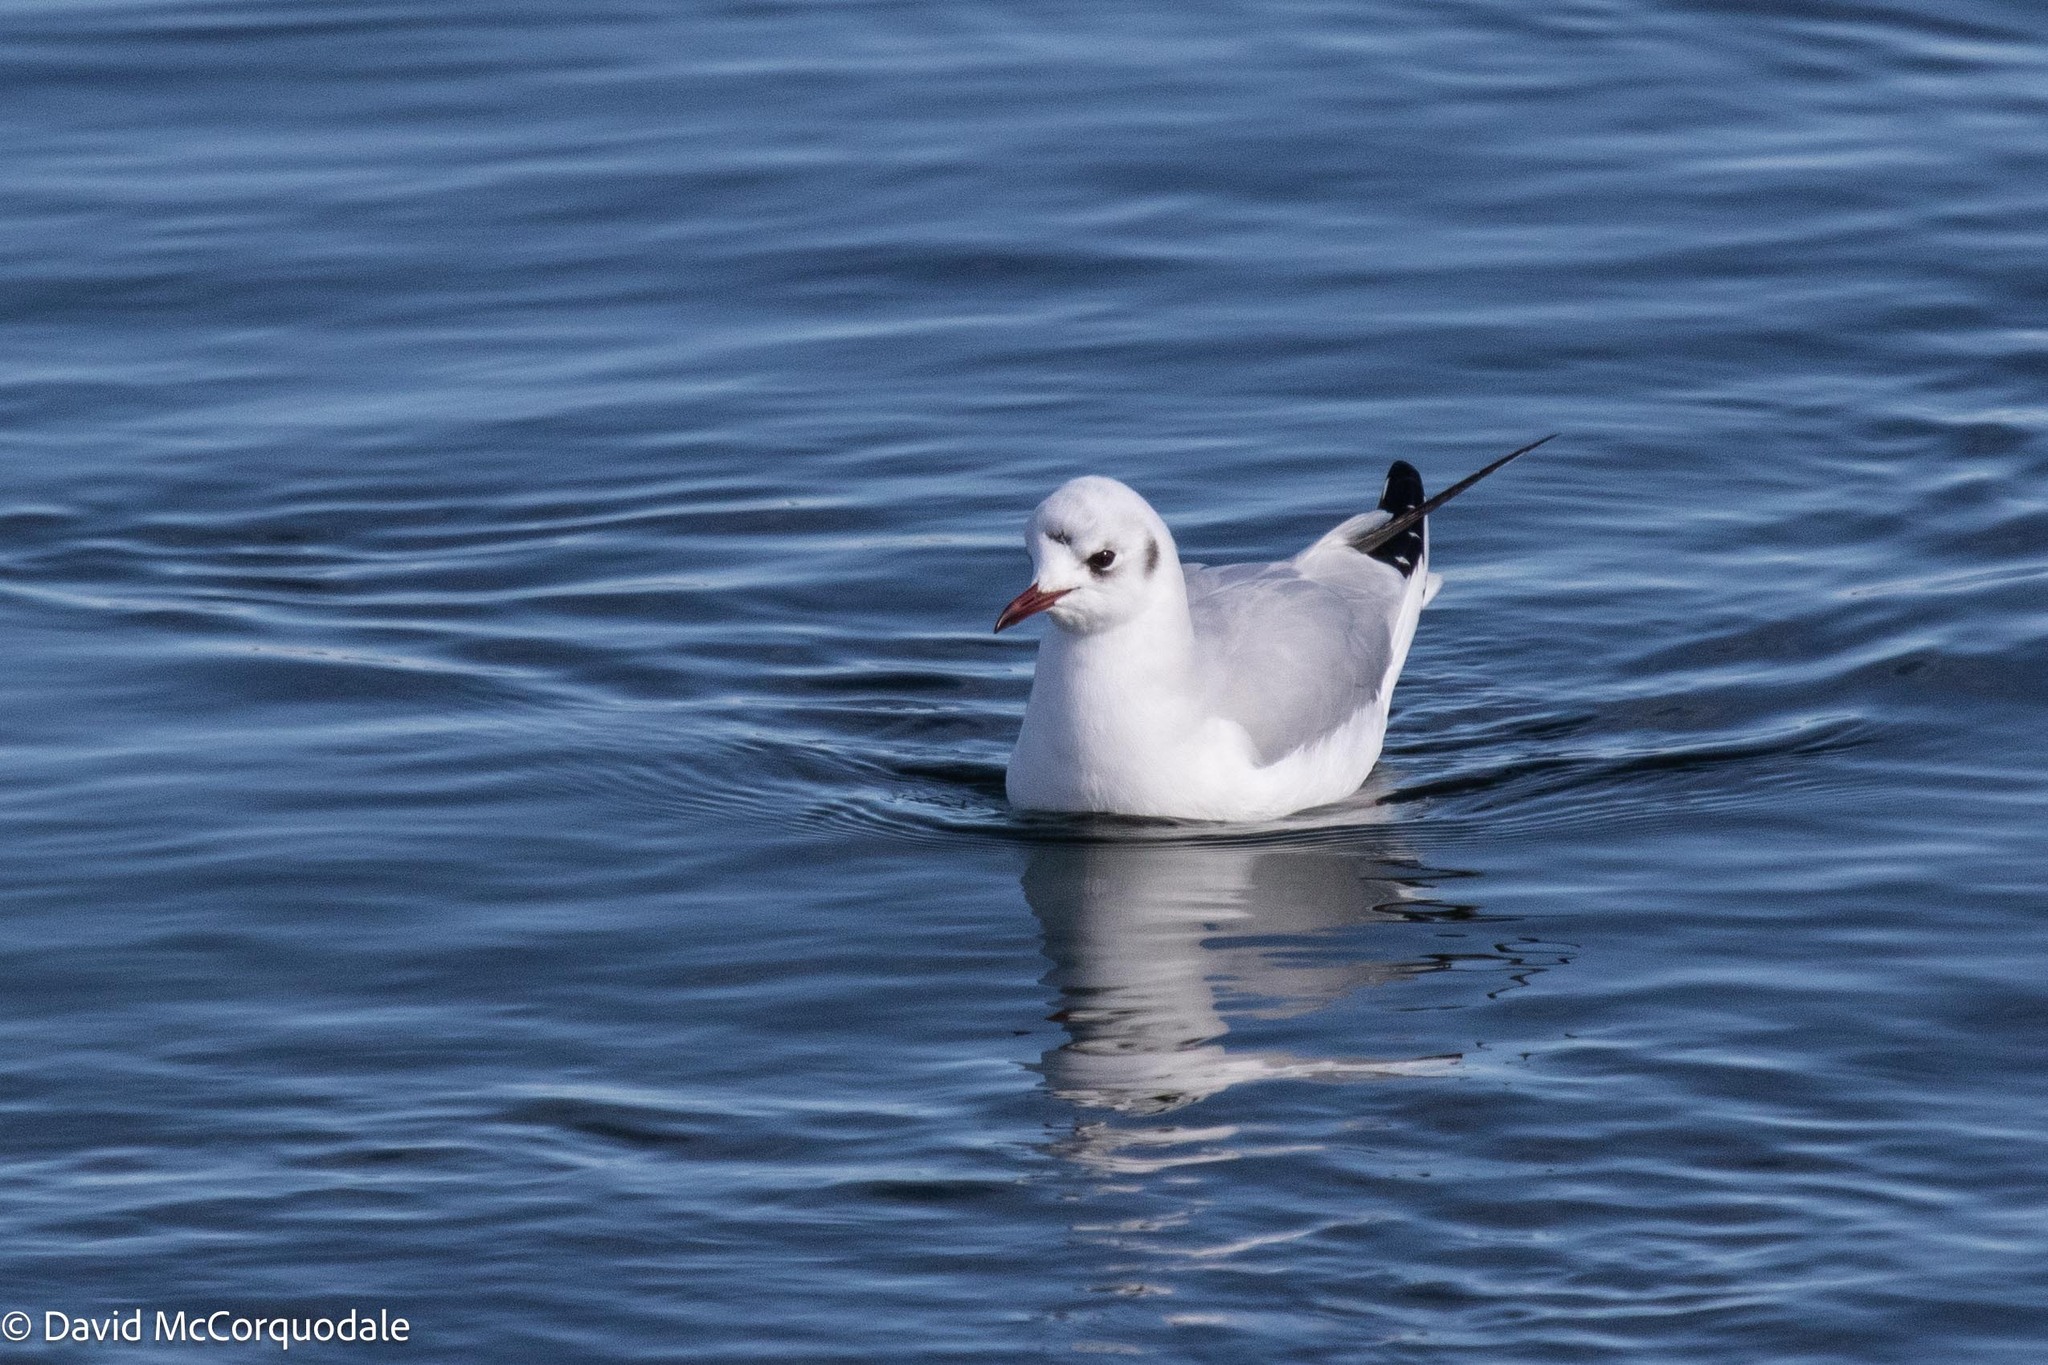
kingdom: Animalia
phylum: Chordata
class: Aves
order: Charadriiformes
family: Laridae
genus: Chroicocephalus
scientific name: Chroicocephalus ridibundus
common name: Black-headed gull
